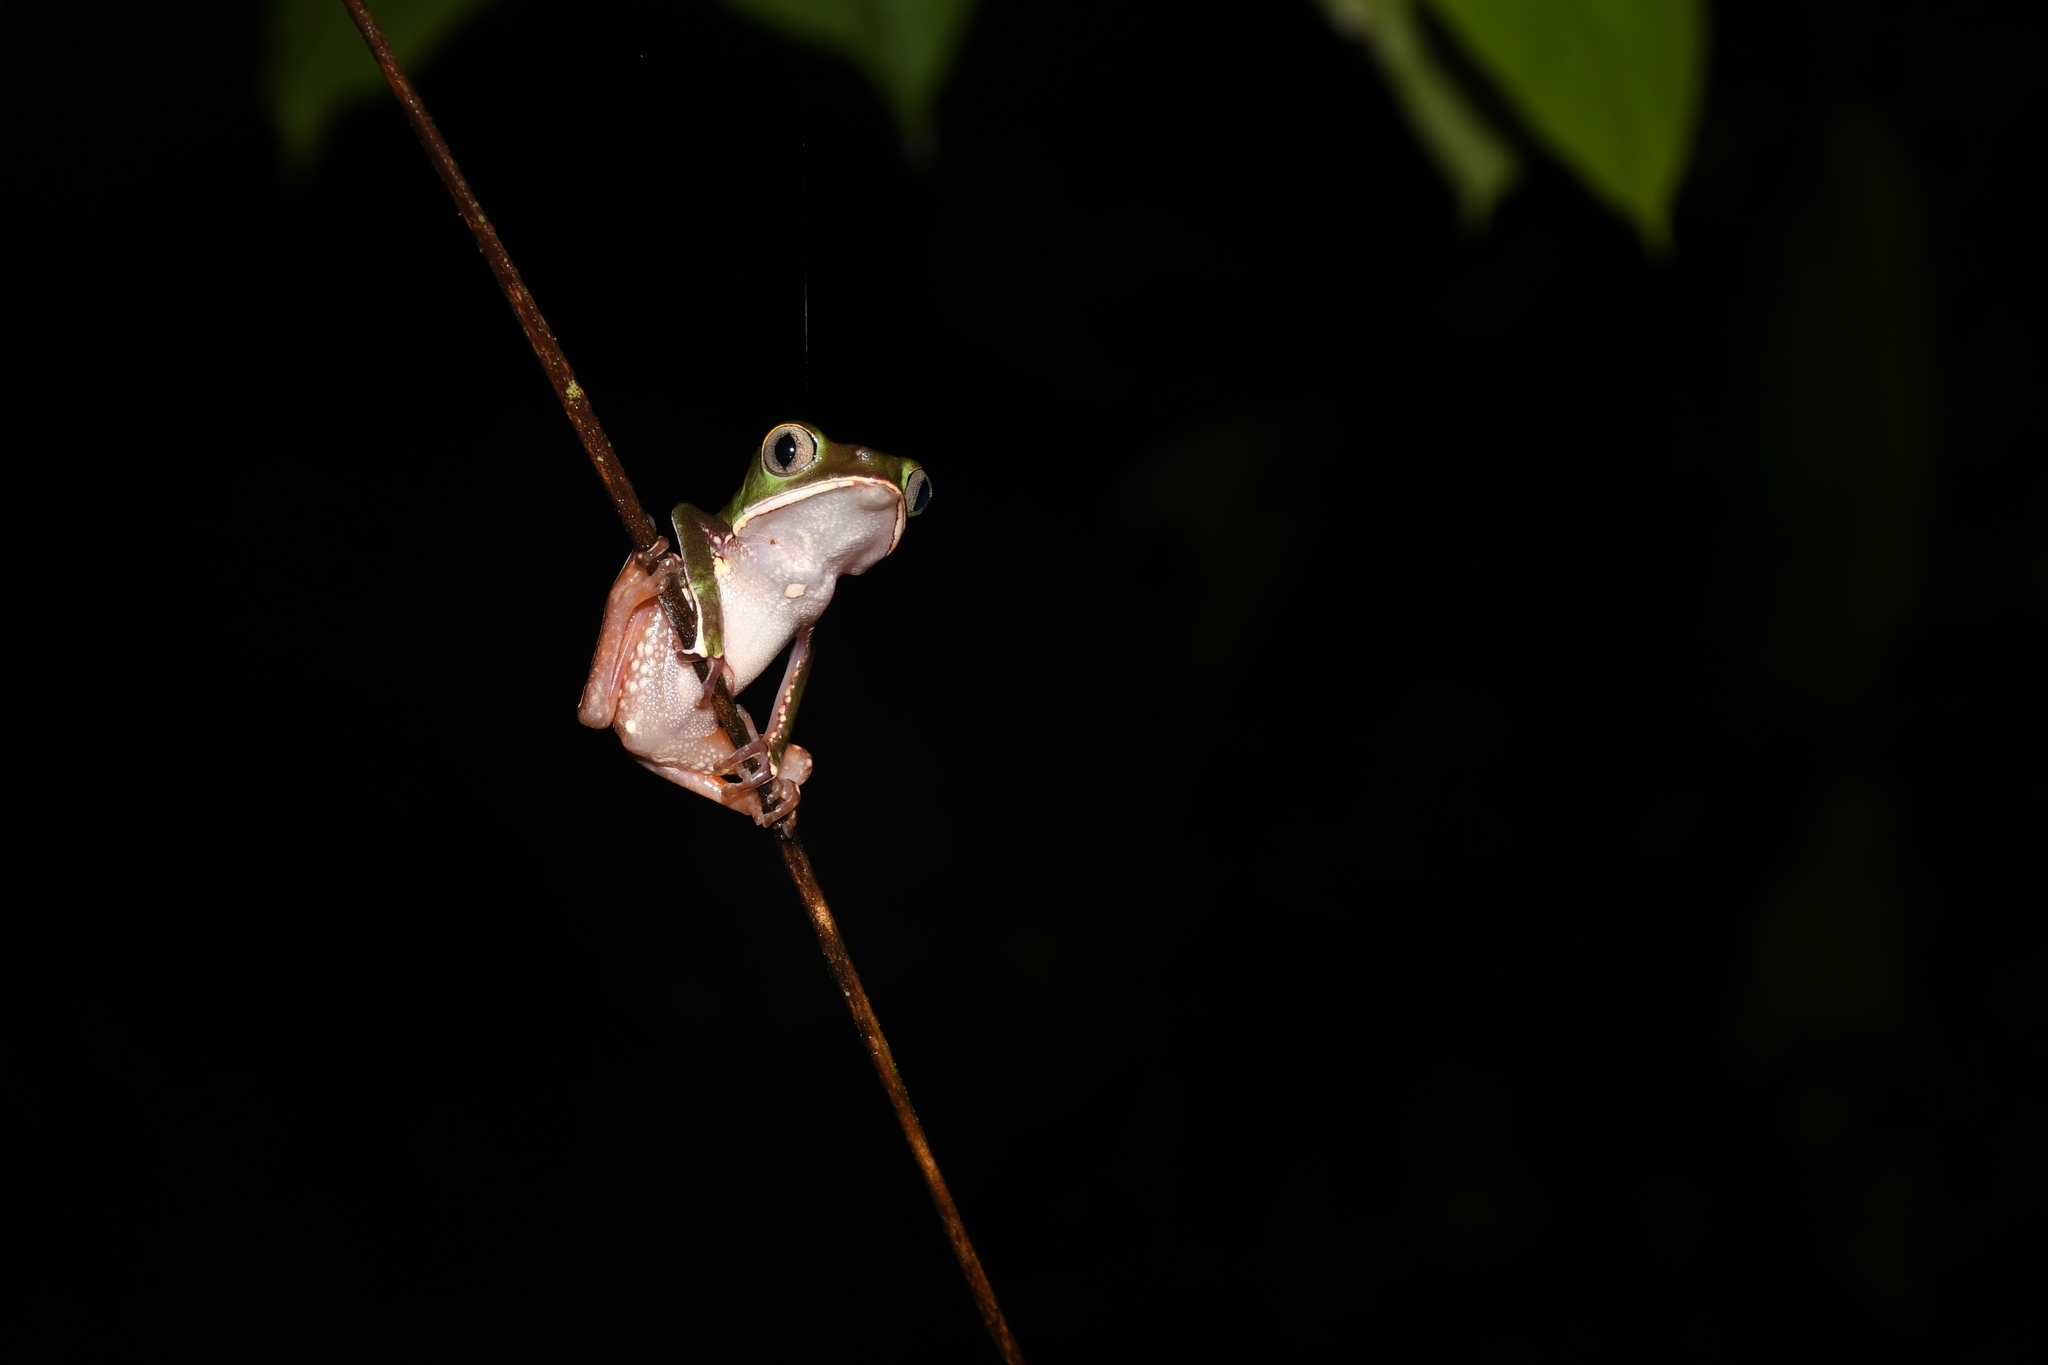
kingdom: Animalia
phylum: Chordata
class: Amphibia
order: Anura
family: Phyllomedusidae
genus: Phyllomedusa
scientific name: Phyllomedusa vaillantii
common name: White-lined leaf frog
